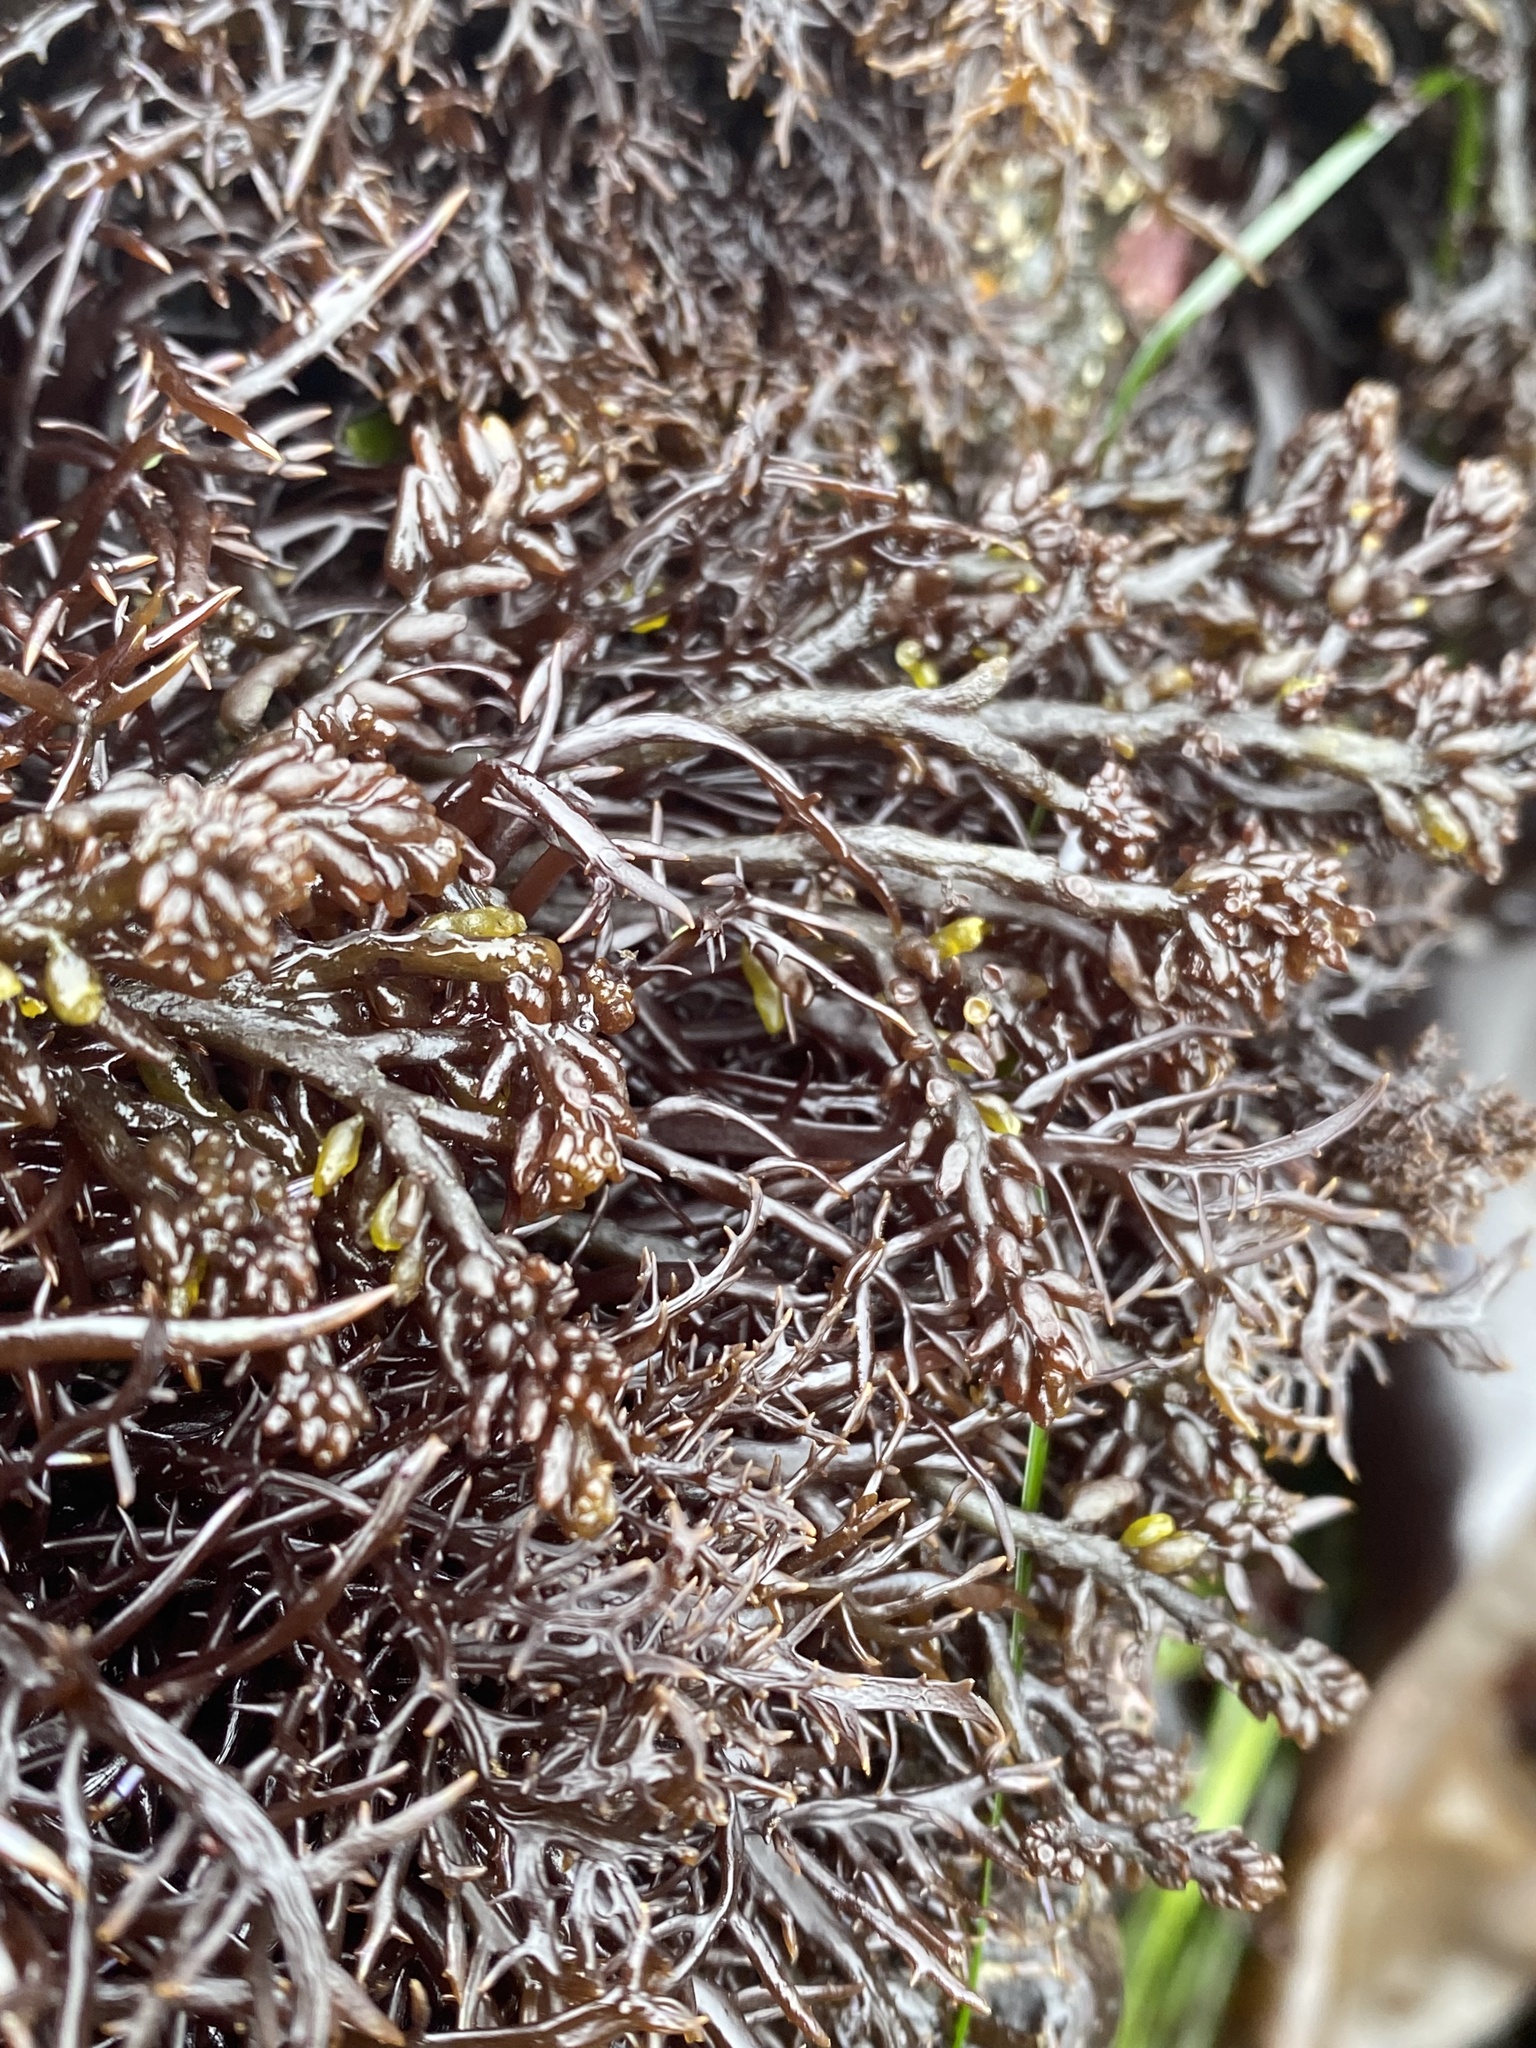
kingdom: Plantae
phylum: Rhodophyta
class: Florideophyceae
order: Rhodymeniales
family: Champiaceae
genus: Neogastroclonium
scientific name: Neogastroclonium subarticulatum
